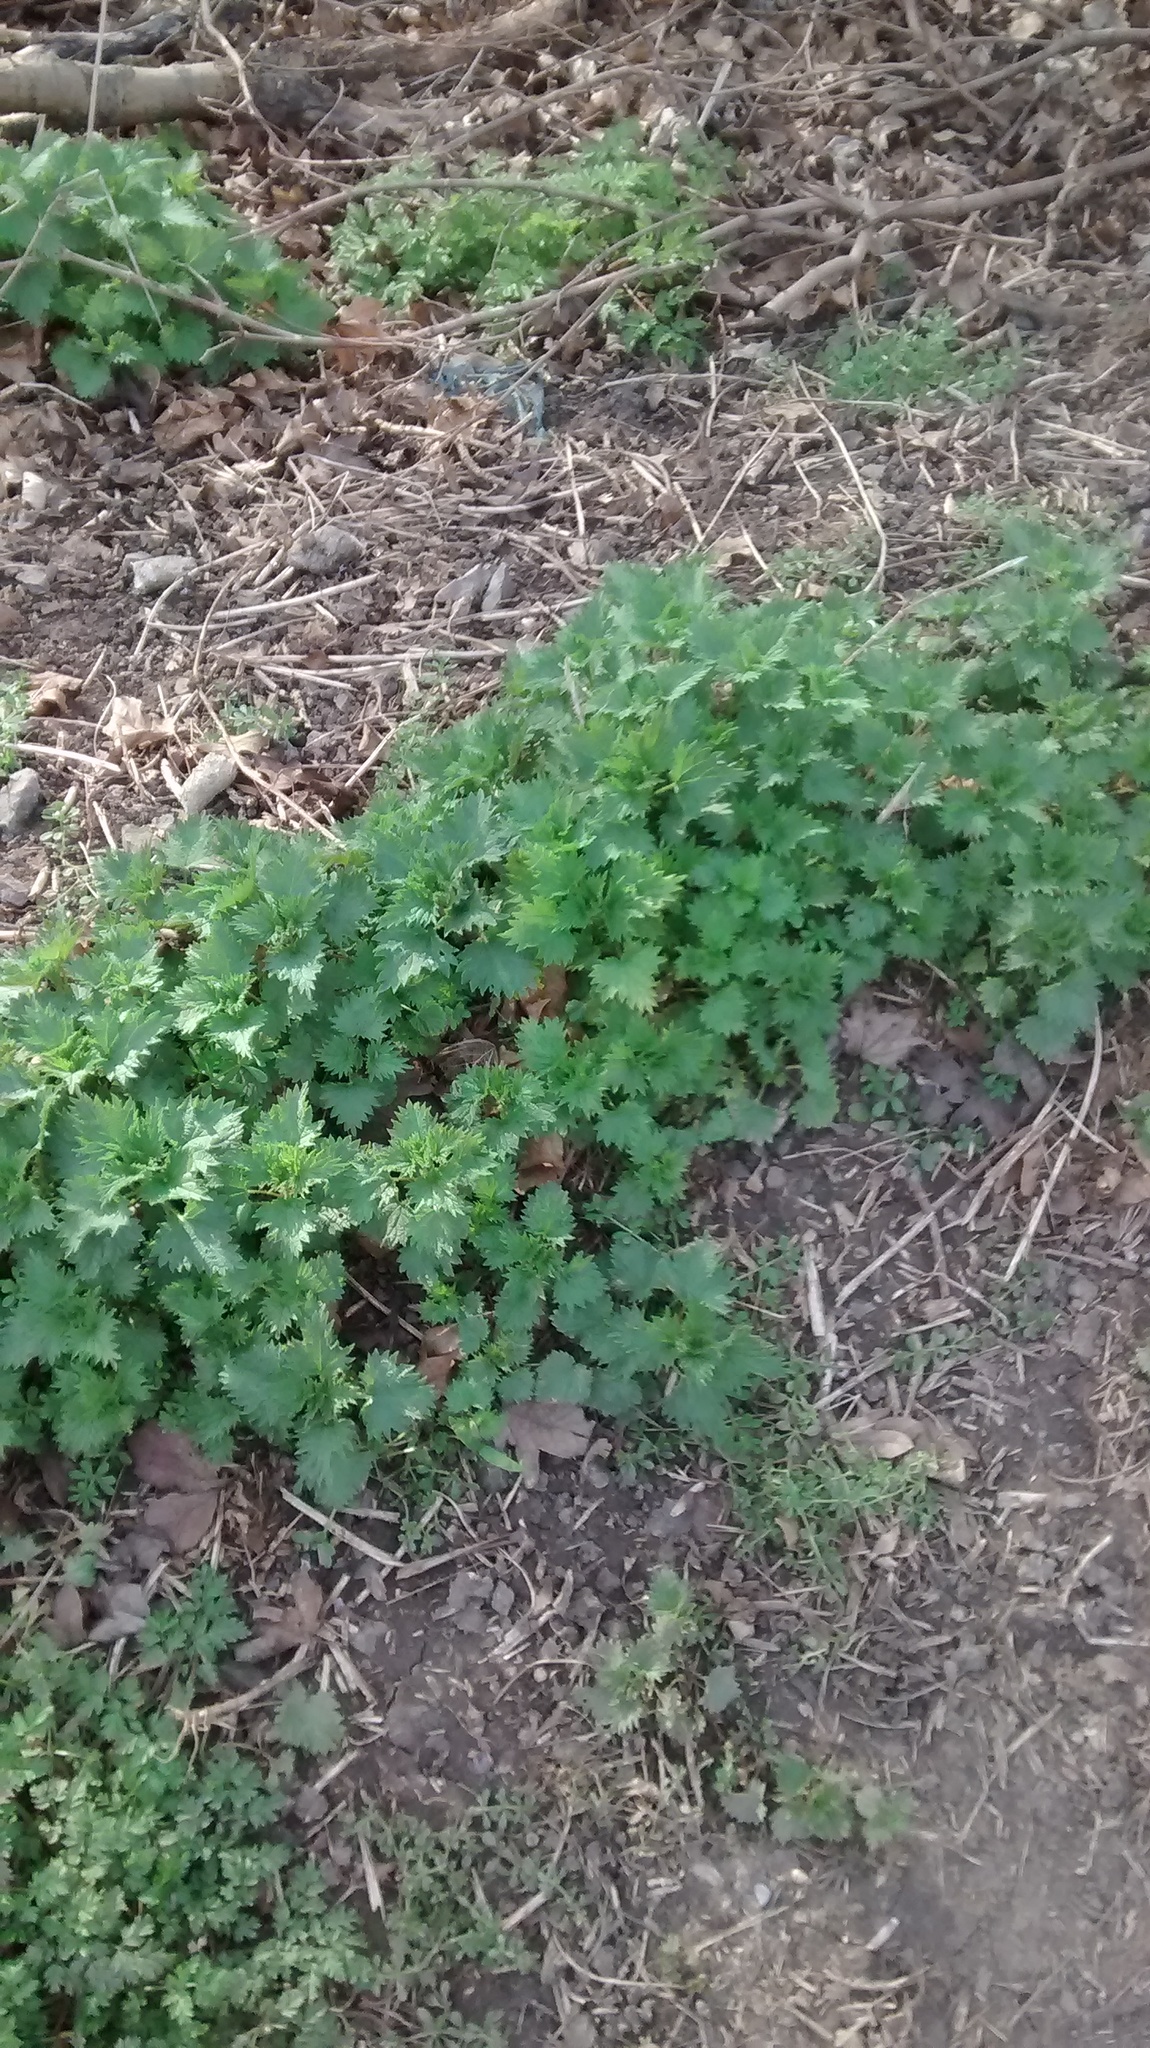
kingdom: Plantae
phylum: Tracheophyta
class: Magnoliopsida
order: Rosales
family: Urticaceae
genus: Urtica
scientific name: Urtica dioica
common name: Common nettle
